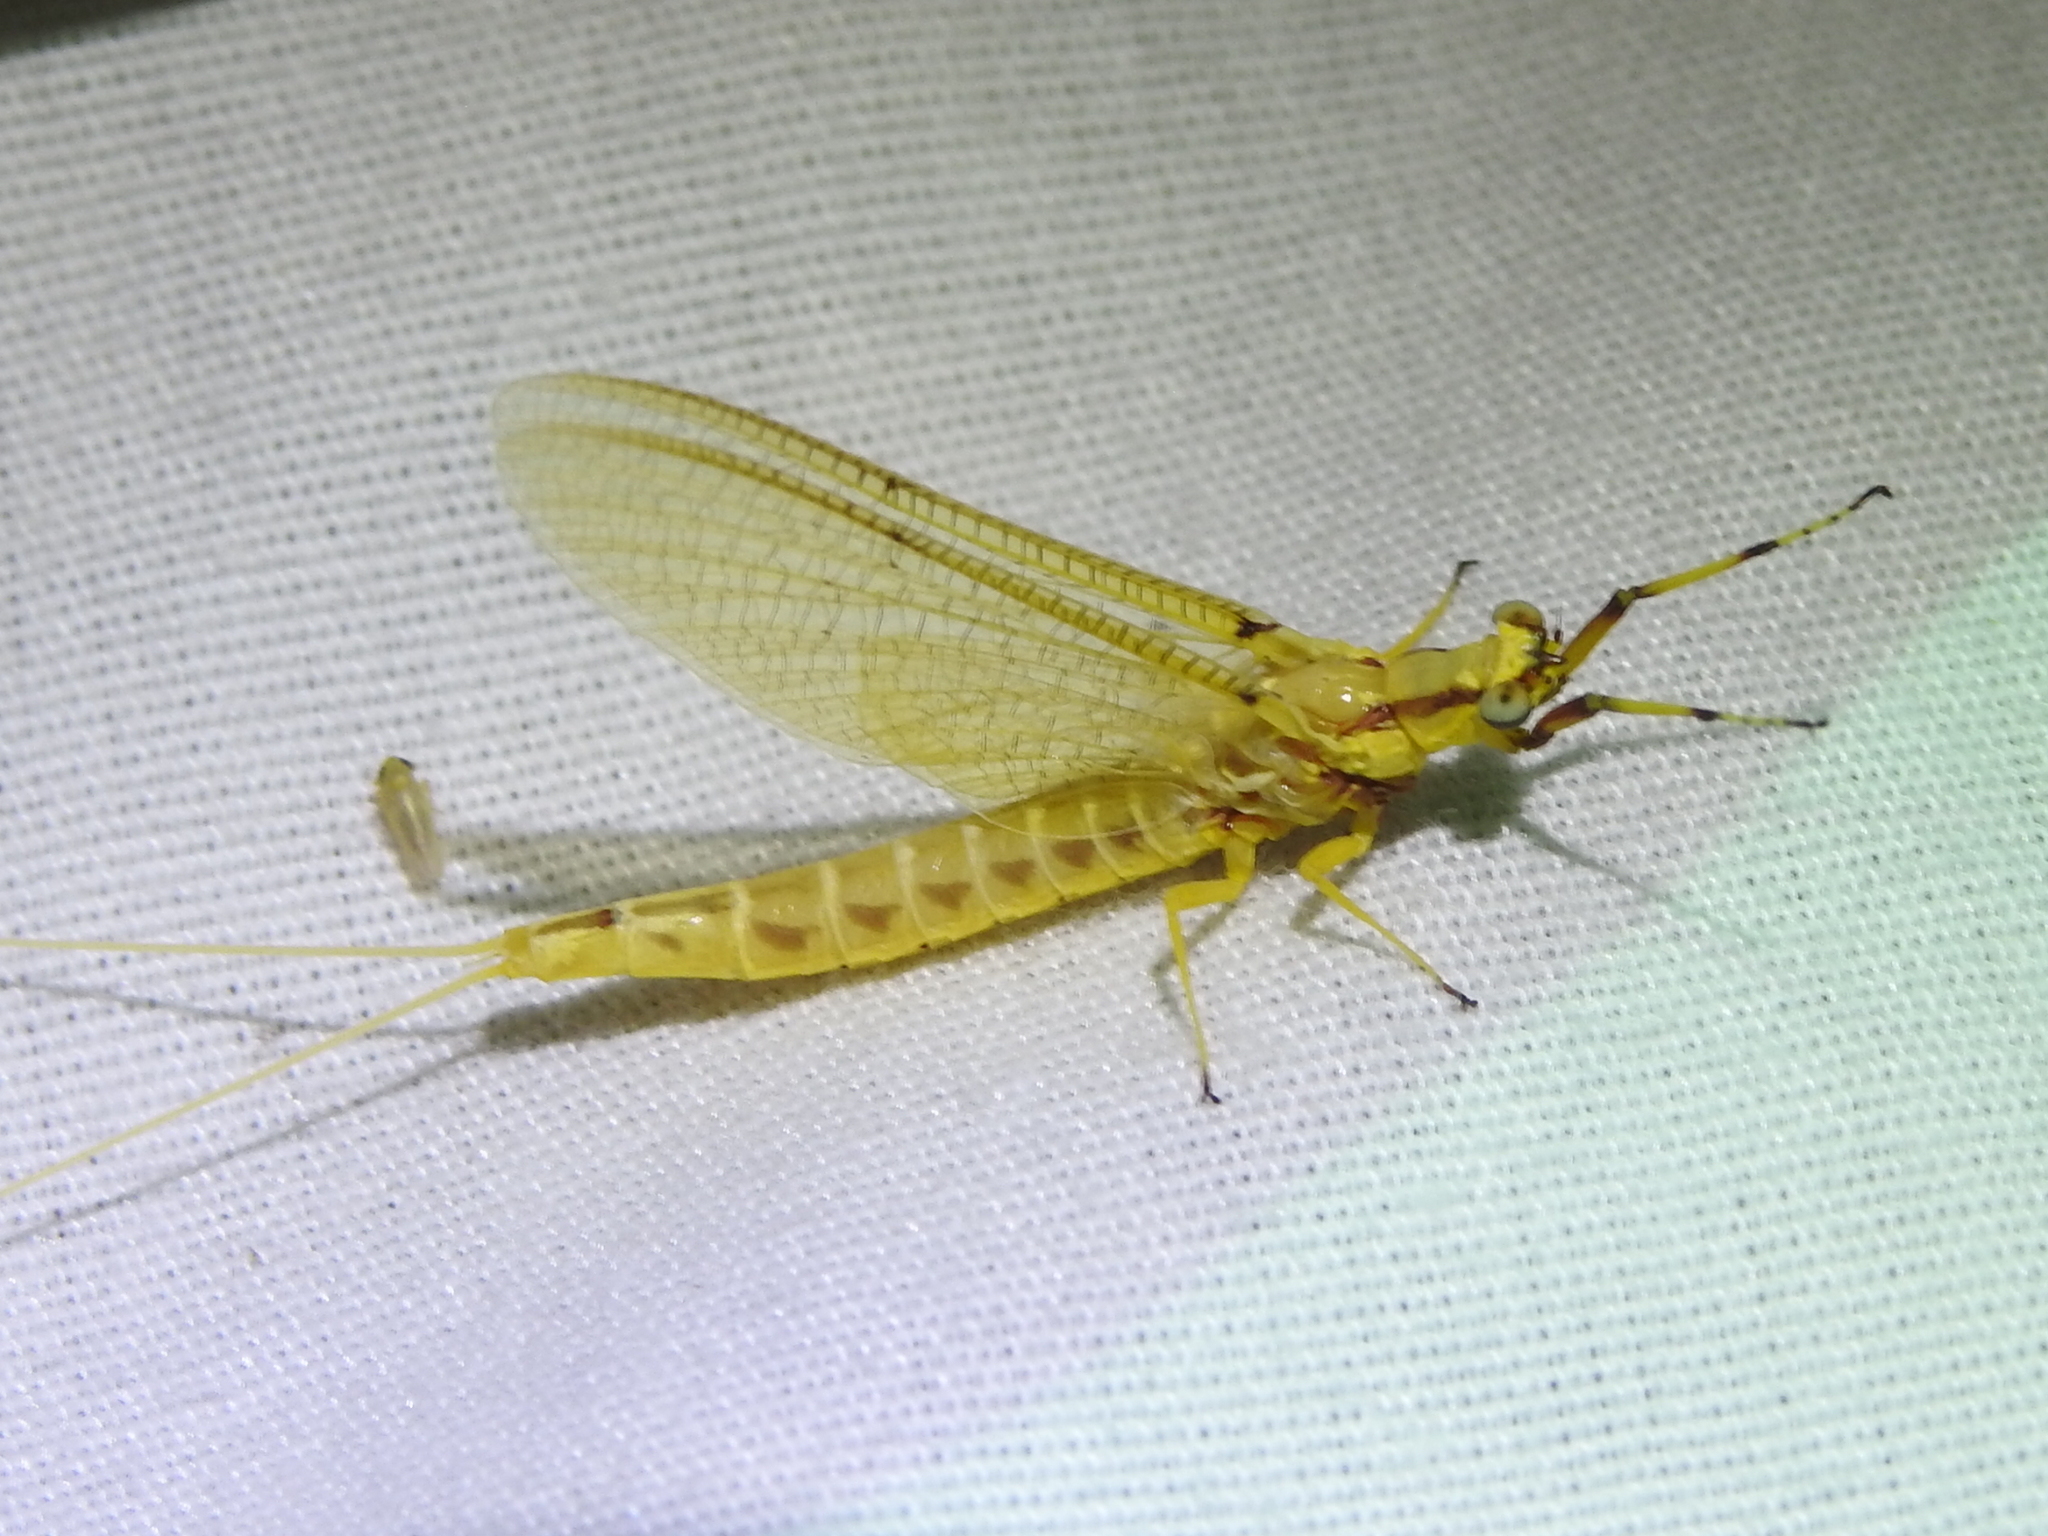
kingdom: Animalia
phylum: Arthropoda
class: Insecta
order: Ephemeroptera
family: Ephemeridae
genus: Hexagenia
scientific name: Hexagenia limbata
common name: Giant mayfly
